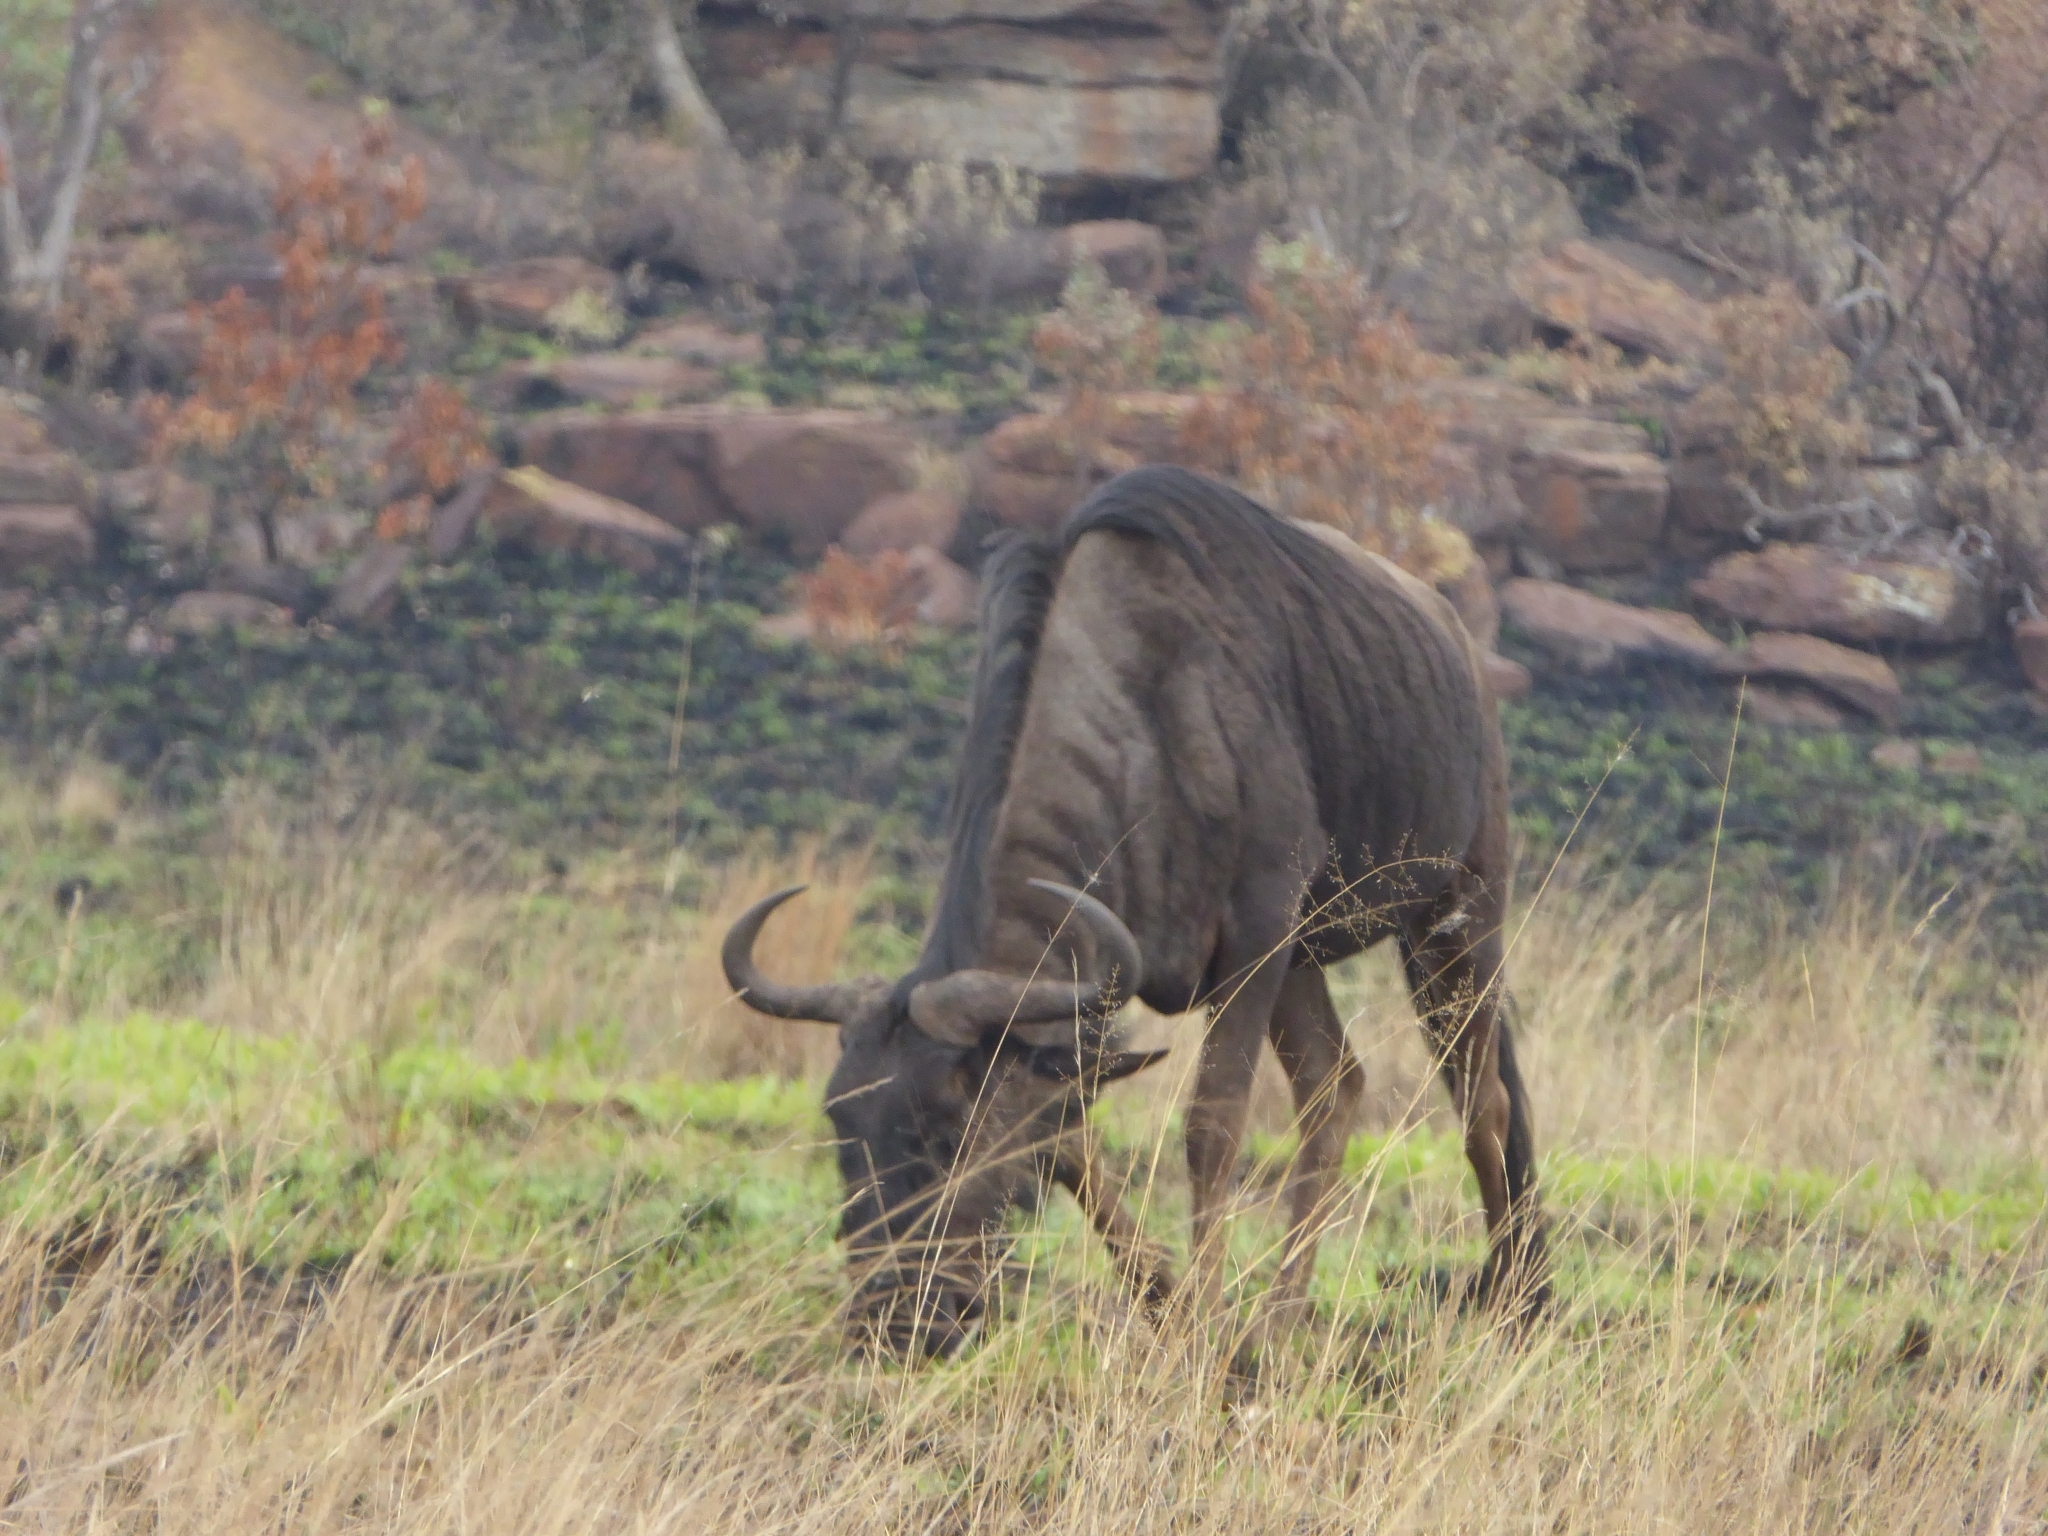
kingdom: Animalia
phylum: Chordata
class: Mammalia
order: Artiodactyla
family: Bovidae
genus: Connochaetes
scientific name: Connochaetes taurinus
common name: Blue wildebeest
